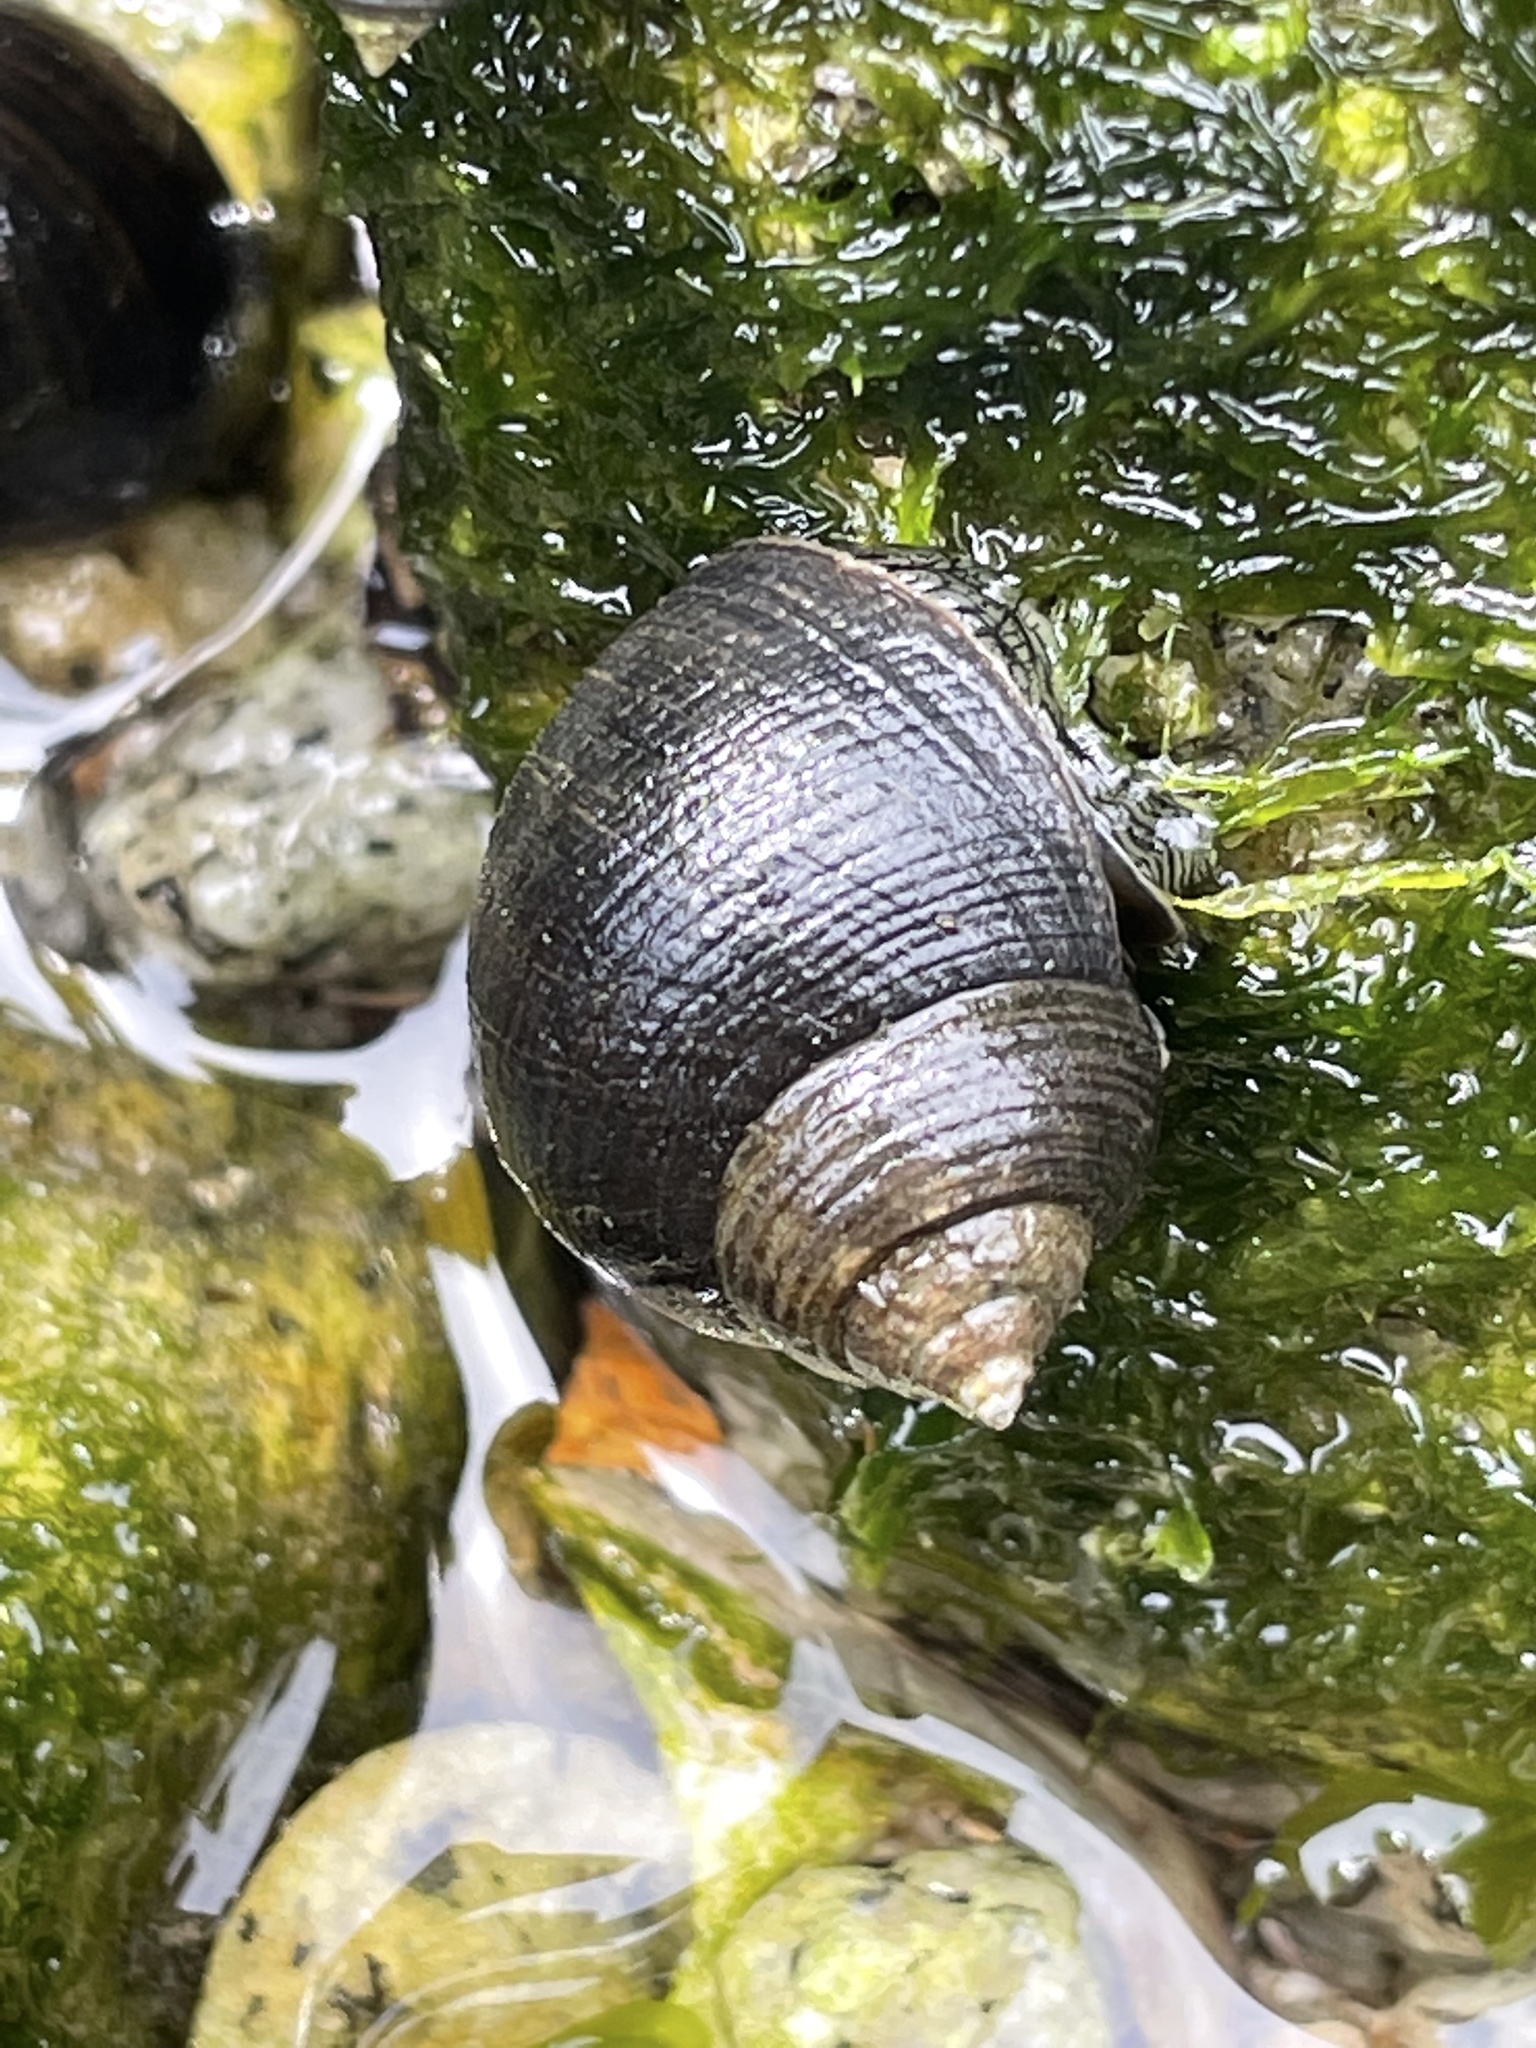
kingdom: Animalia
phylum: Mollusca
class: Gastropoda
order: Littorinimorpha
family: Littorinidae
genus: Littorina
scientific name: Littorina littorea
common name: Common periwinkle
